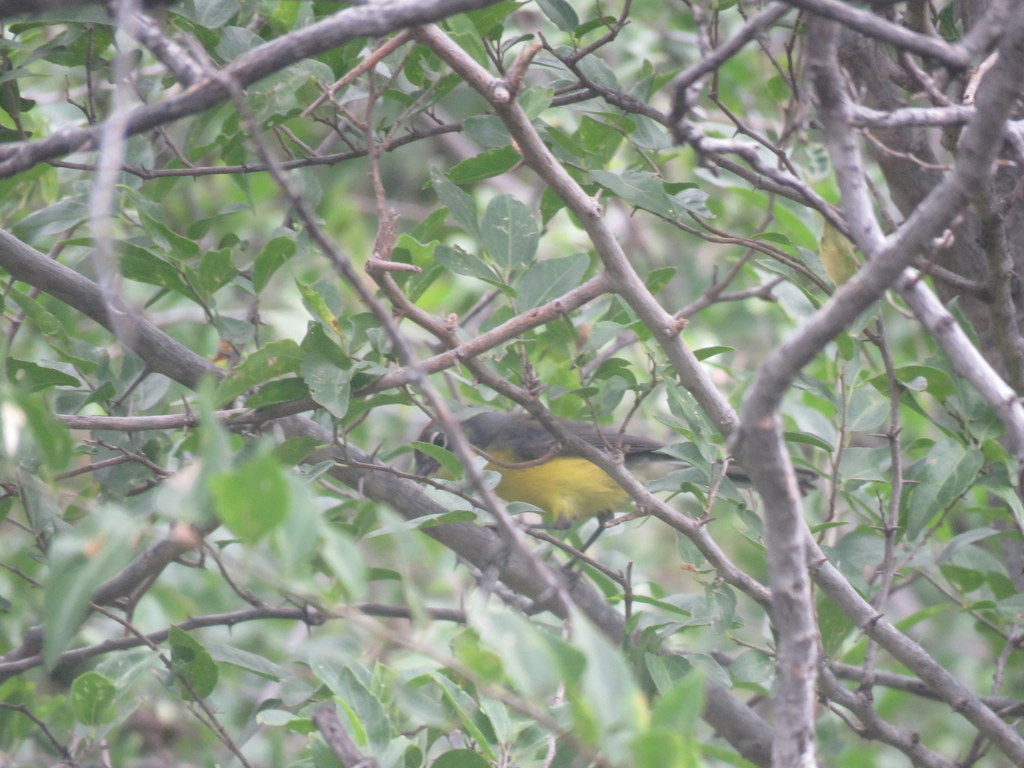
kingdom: Animalia
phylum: Chordata
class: Aves
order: Passeriformes
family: Parulidae
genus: Myioborus
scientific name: Myioborus brunniceps
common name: Brown-capped whitestart
